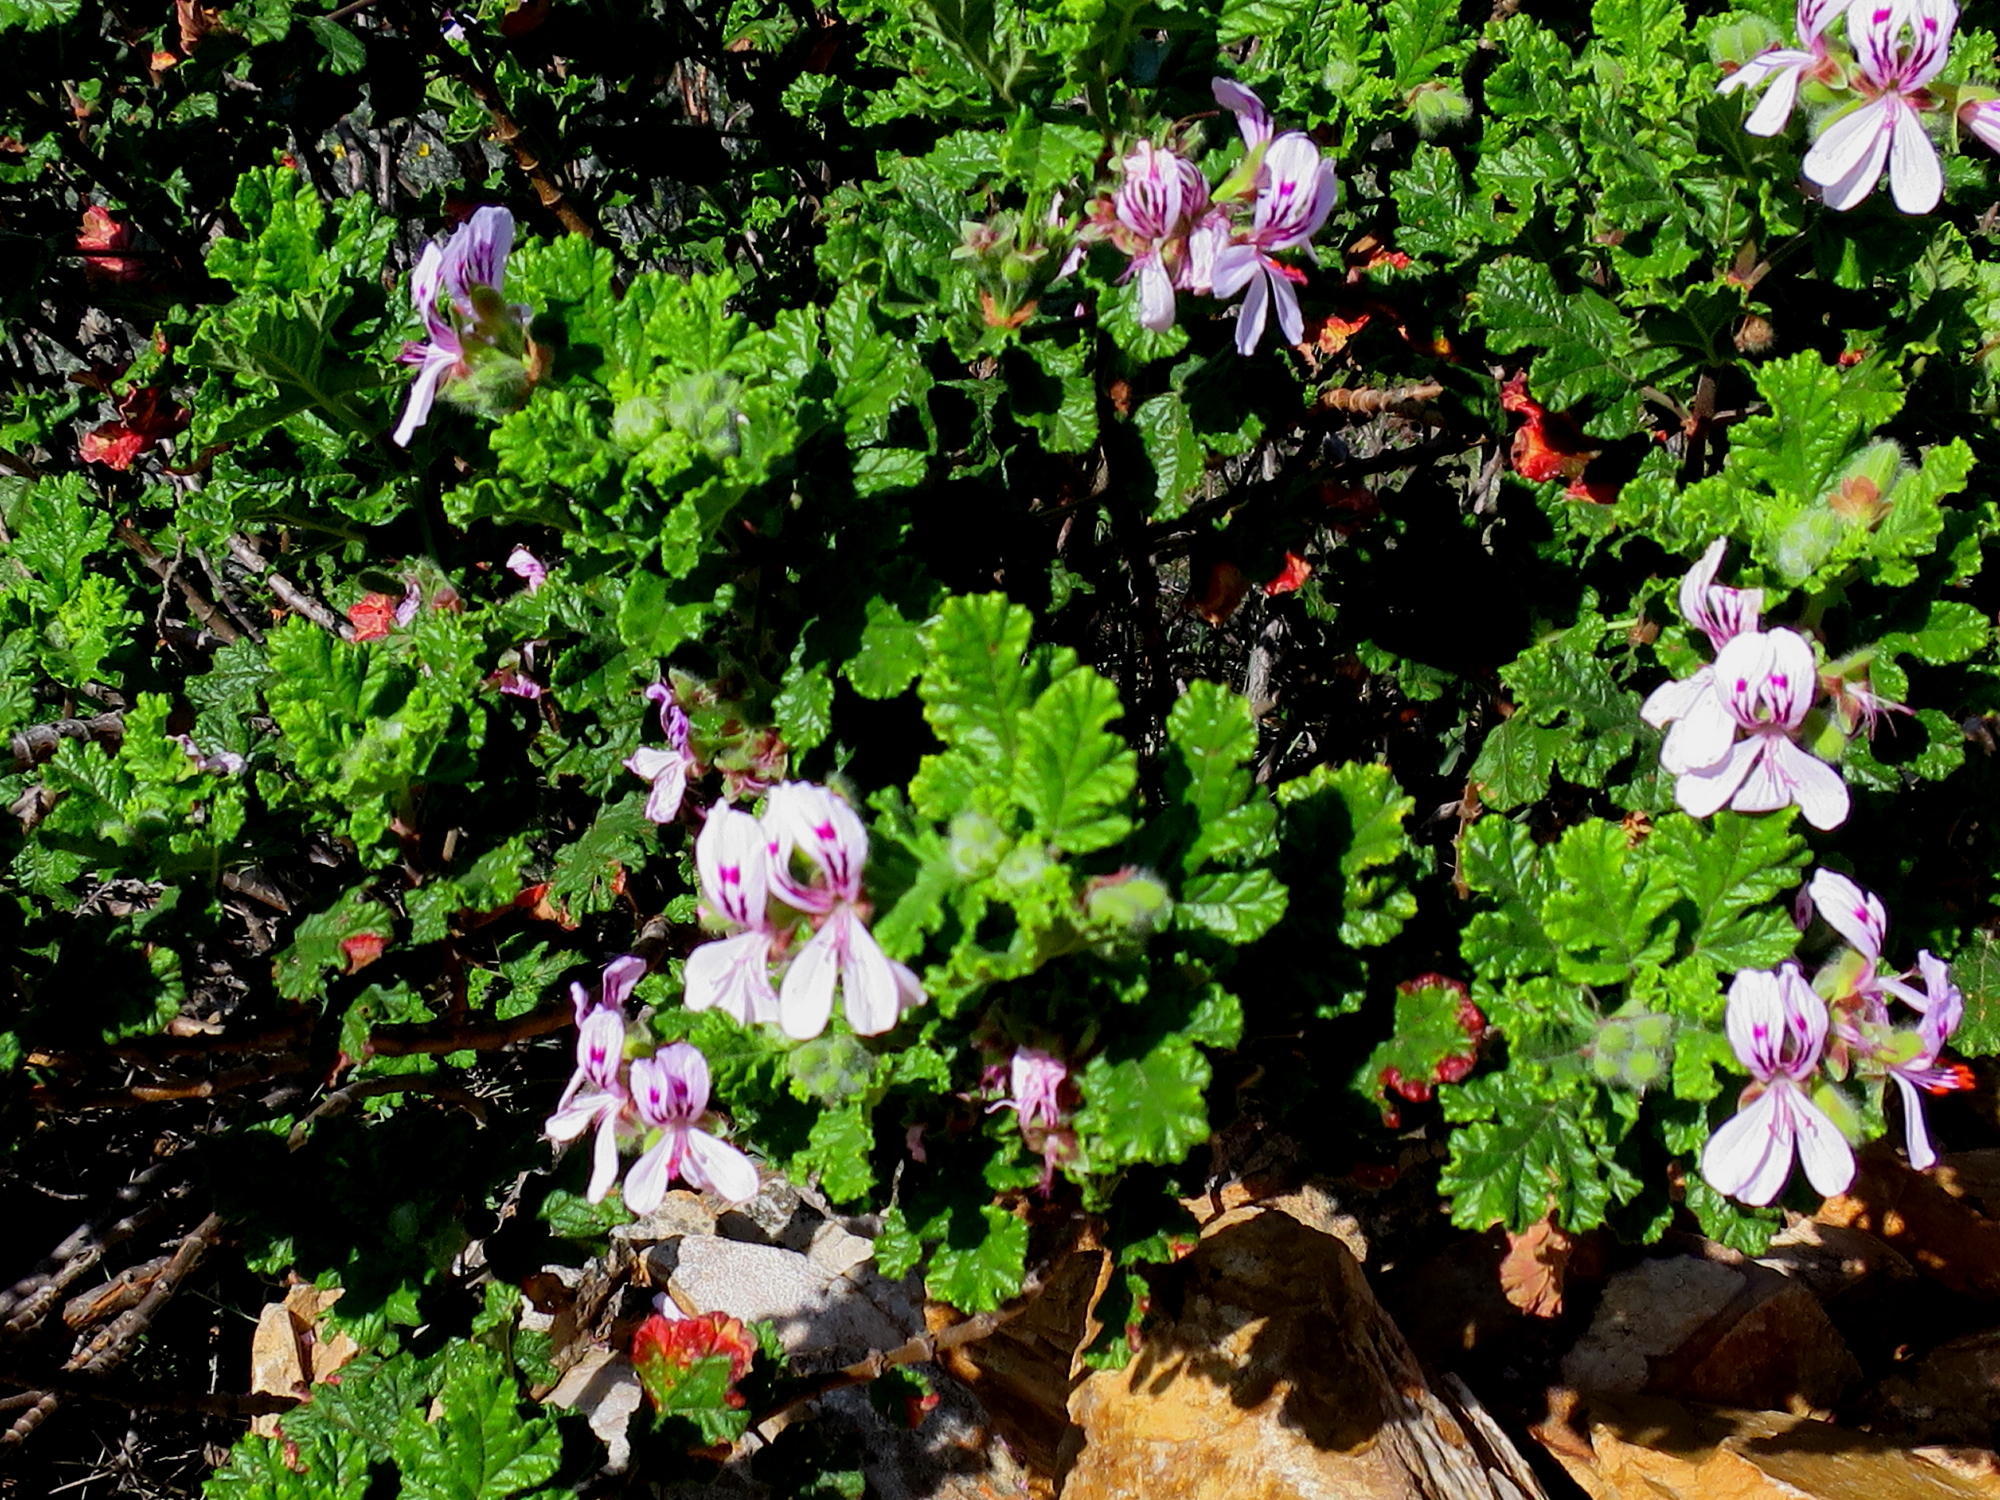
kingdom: Plantae
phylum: Tracheophyta
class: Magnoliopsida
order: Geraniales
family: Geraniaceae
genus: Pelargonium
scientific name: Pelargonium panduriforme
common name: Oakleaf garden geranium
